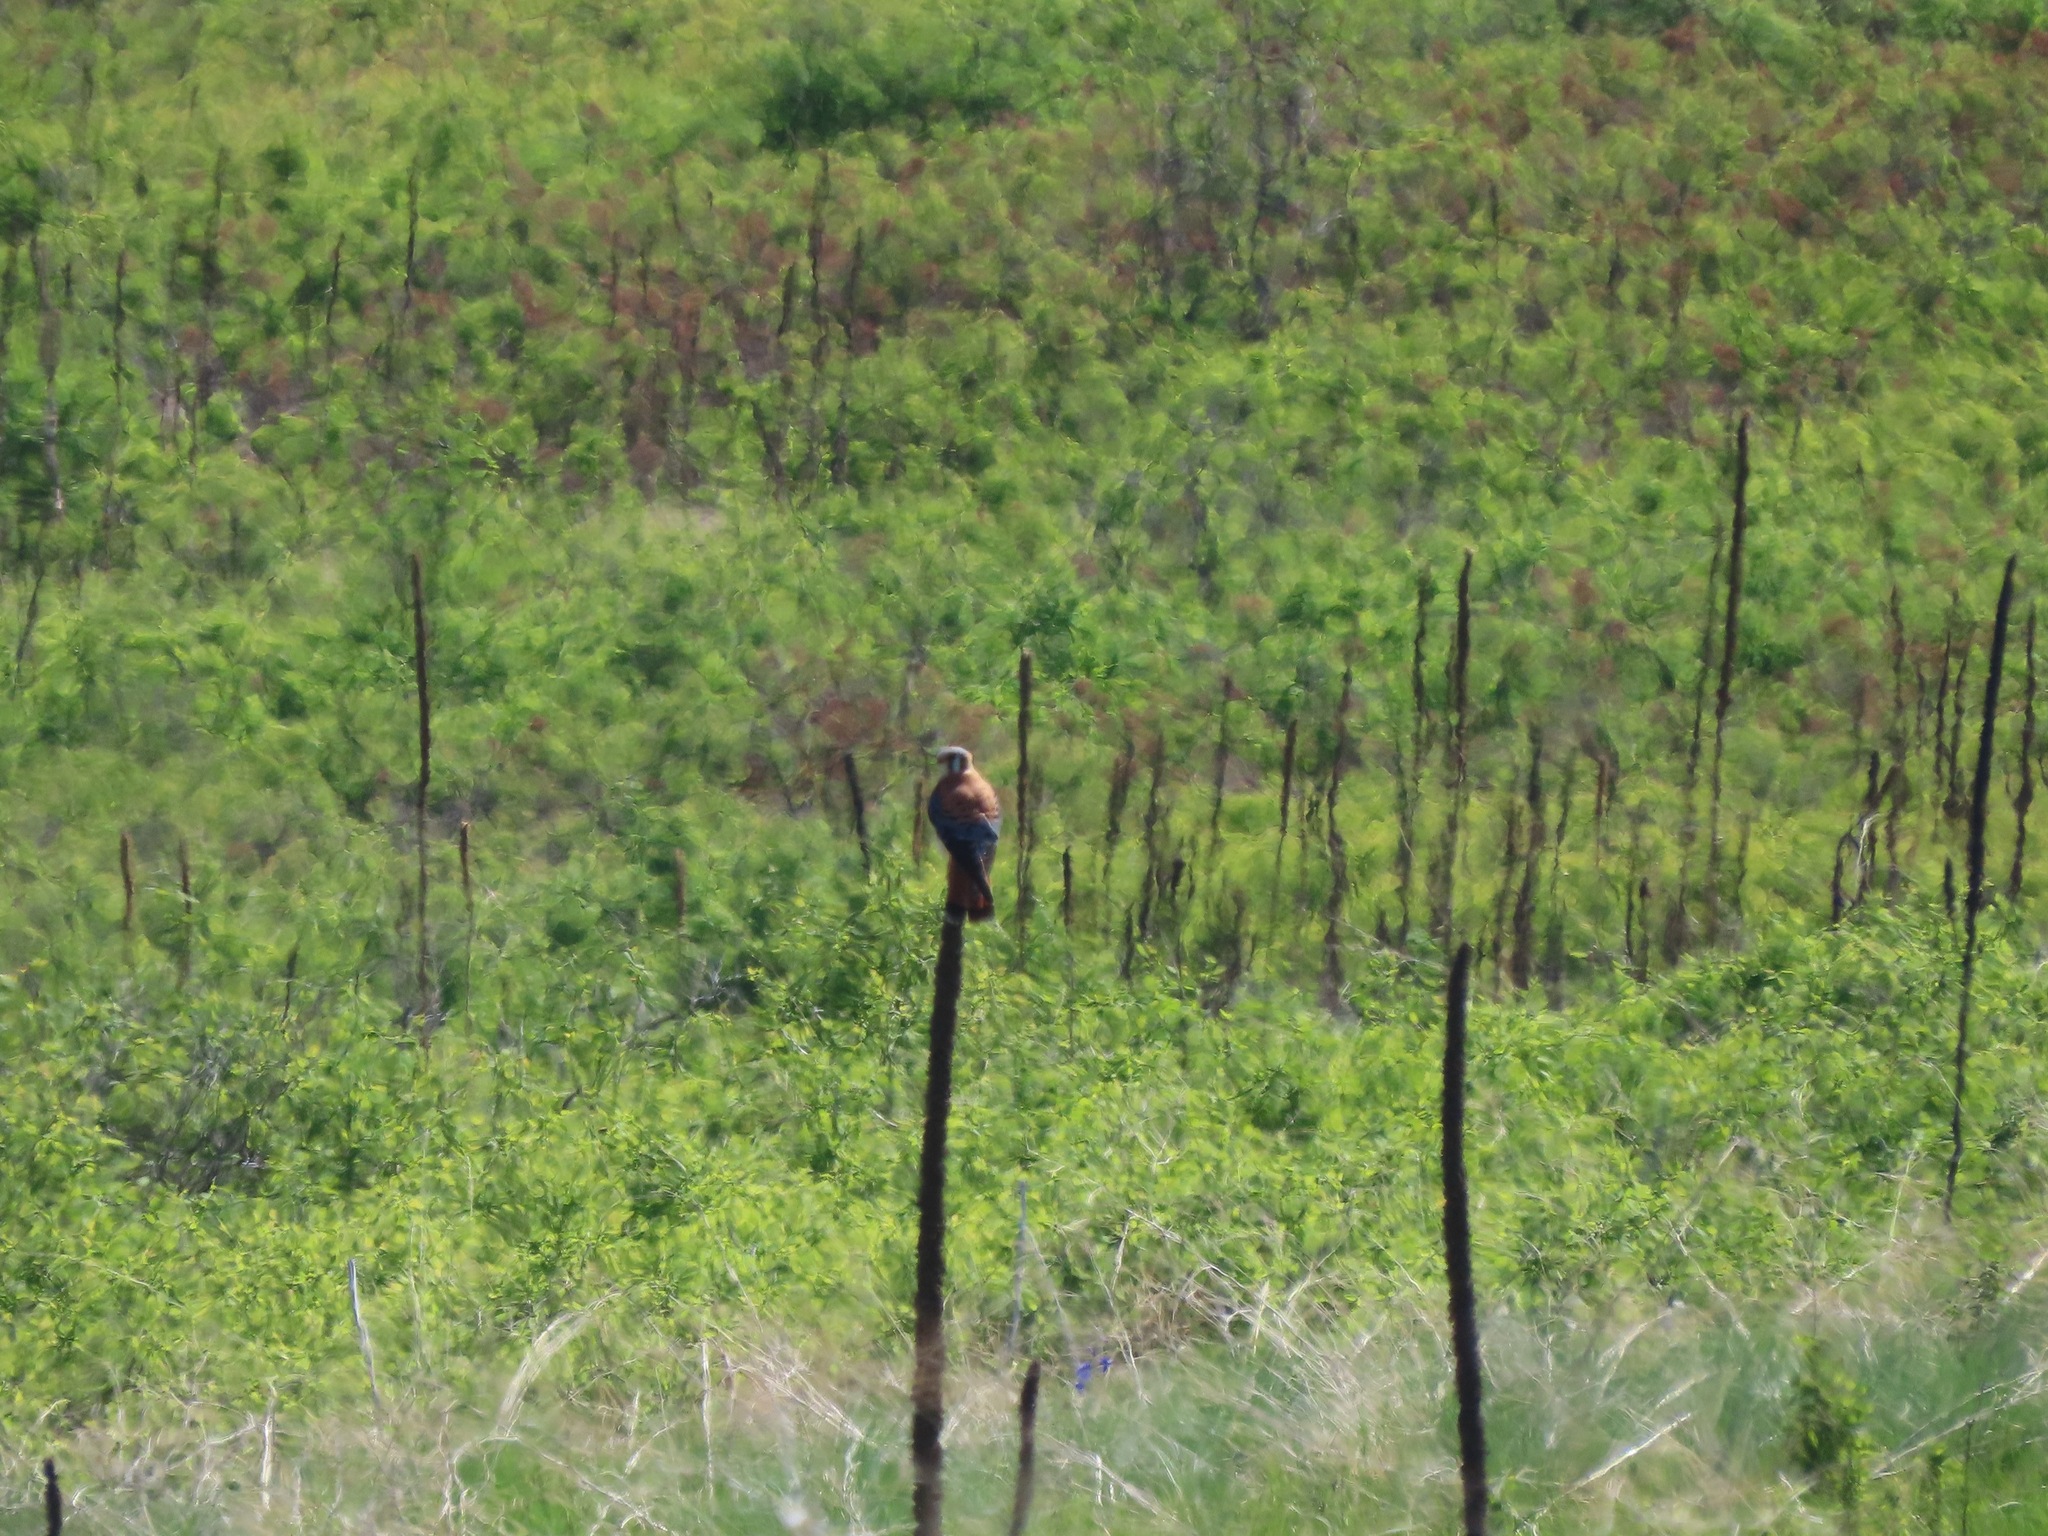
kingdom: Animalia
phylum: Chordata
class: Aves
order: Falconiformes
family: Falconidae
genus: Falco
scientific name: Falco sparverius
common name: American kestrel
